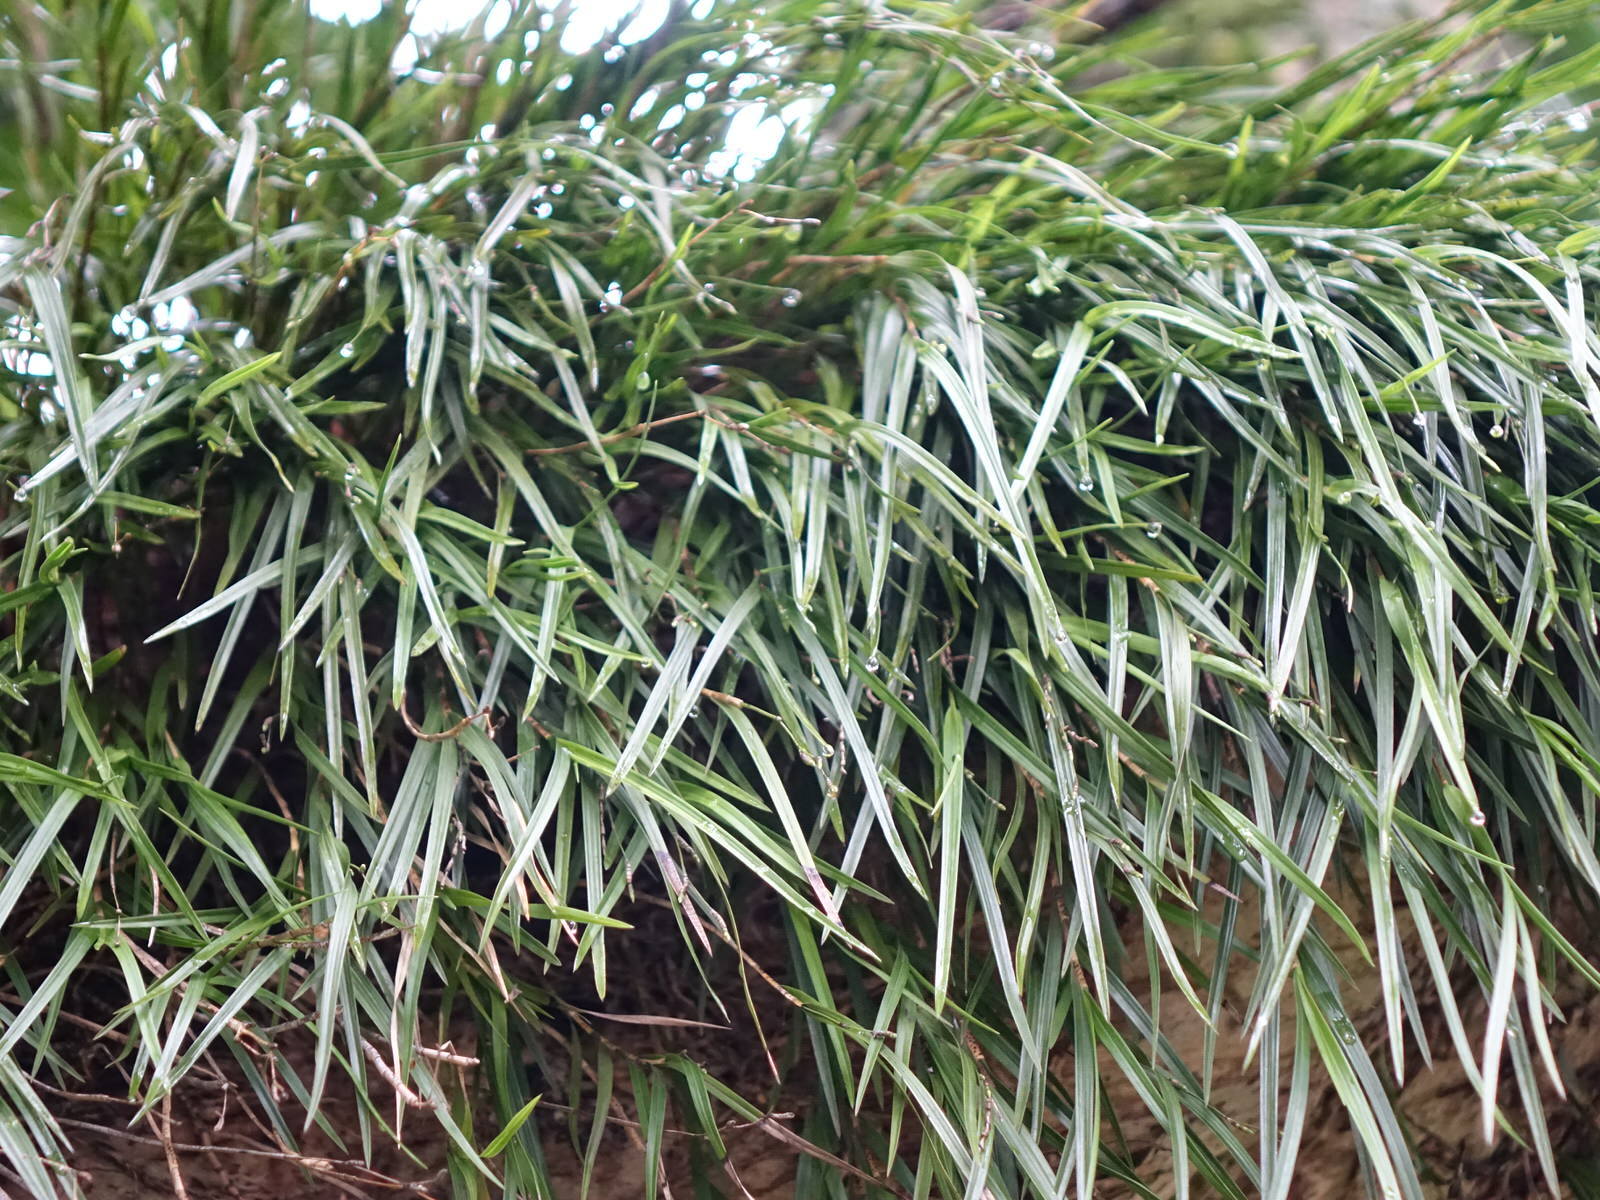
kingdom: Plantae
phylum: Tracheophyta
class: Liliopsida
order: Asparagales
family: Orchidaceae
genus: Earina
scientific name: Earina mucronata
